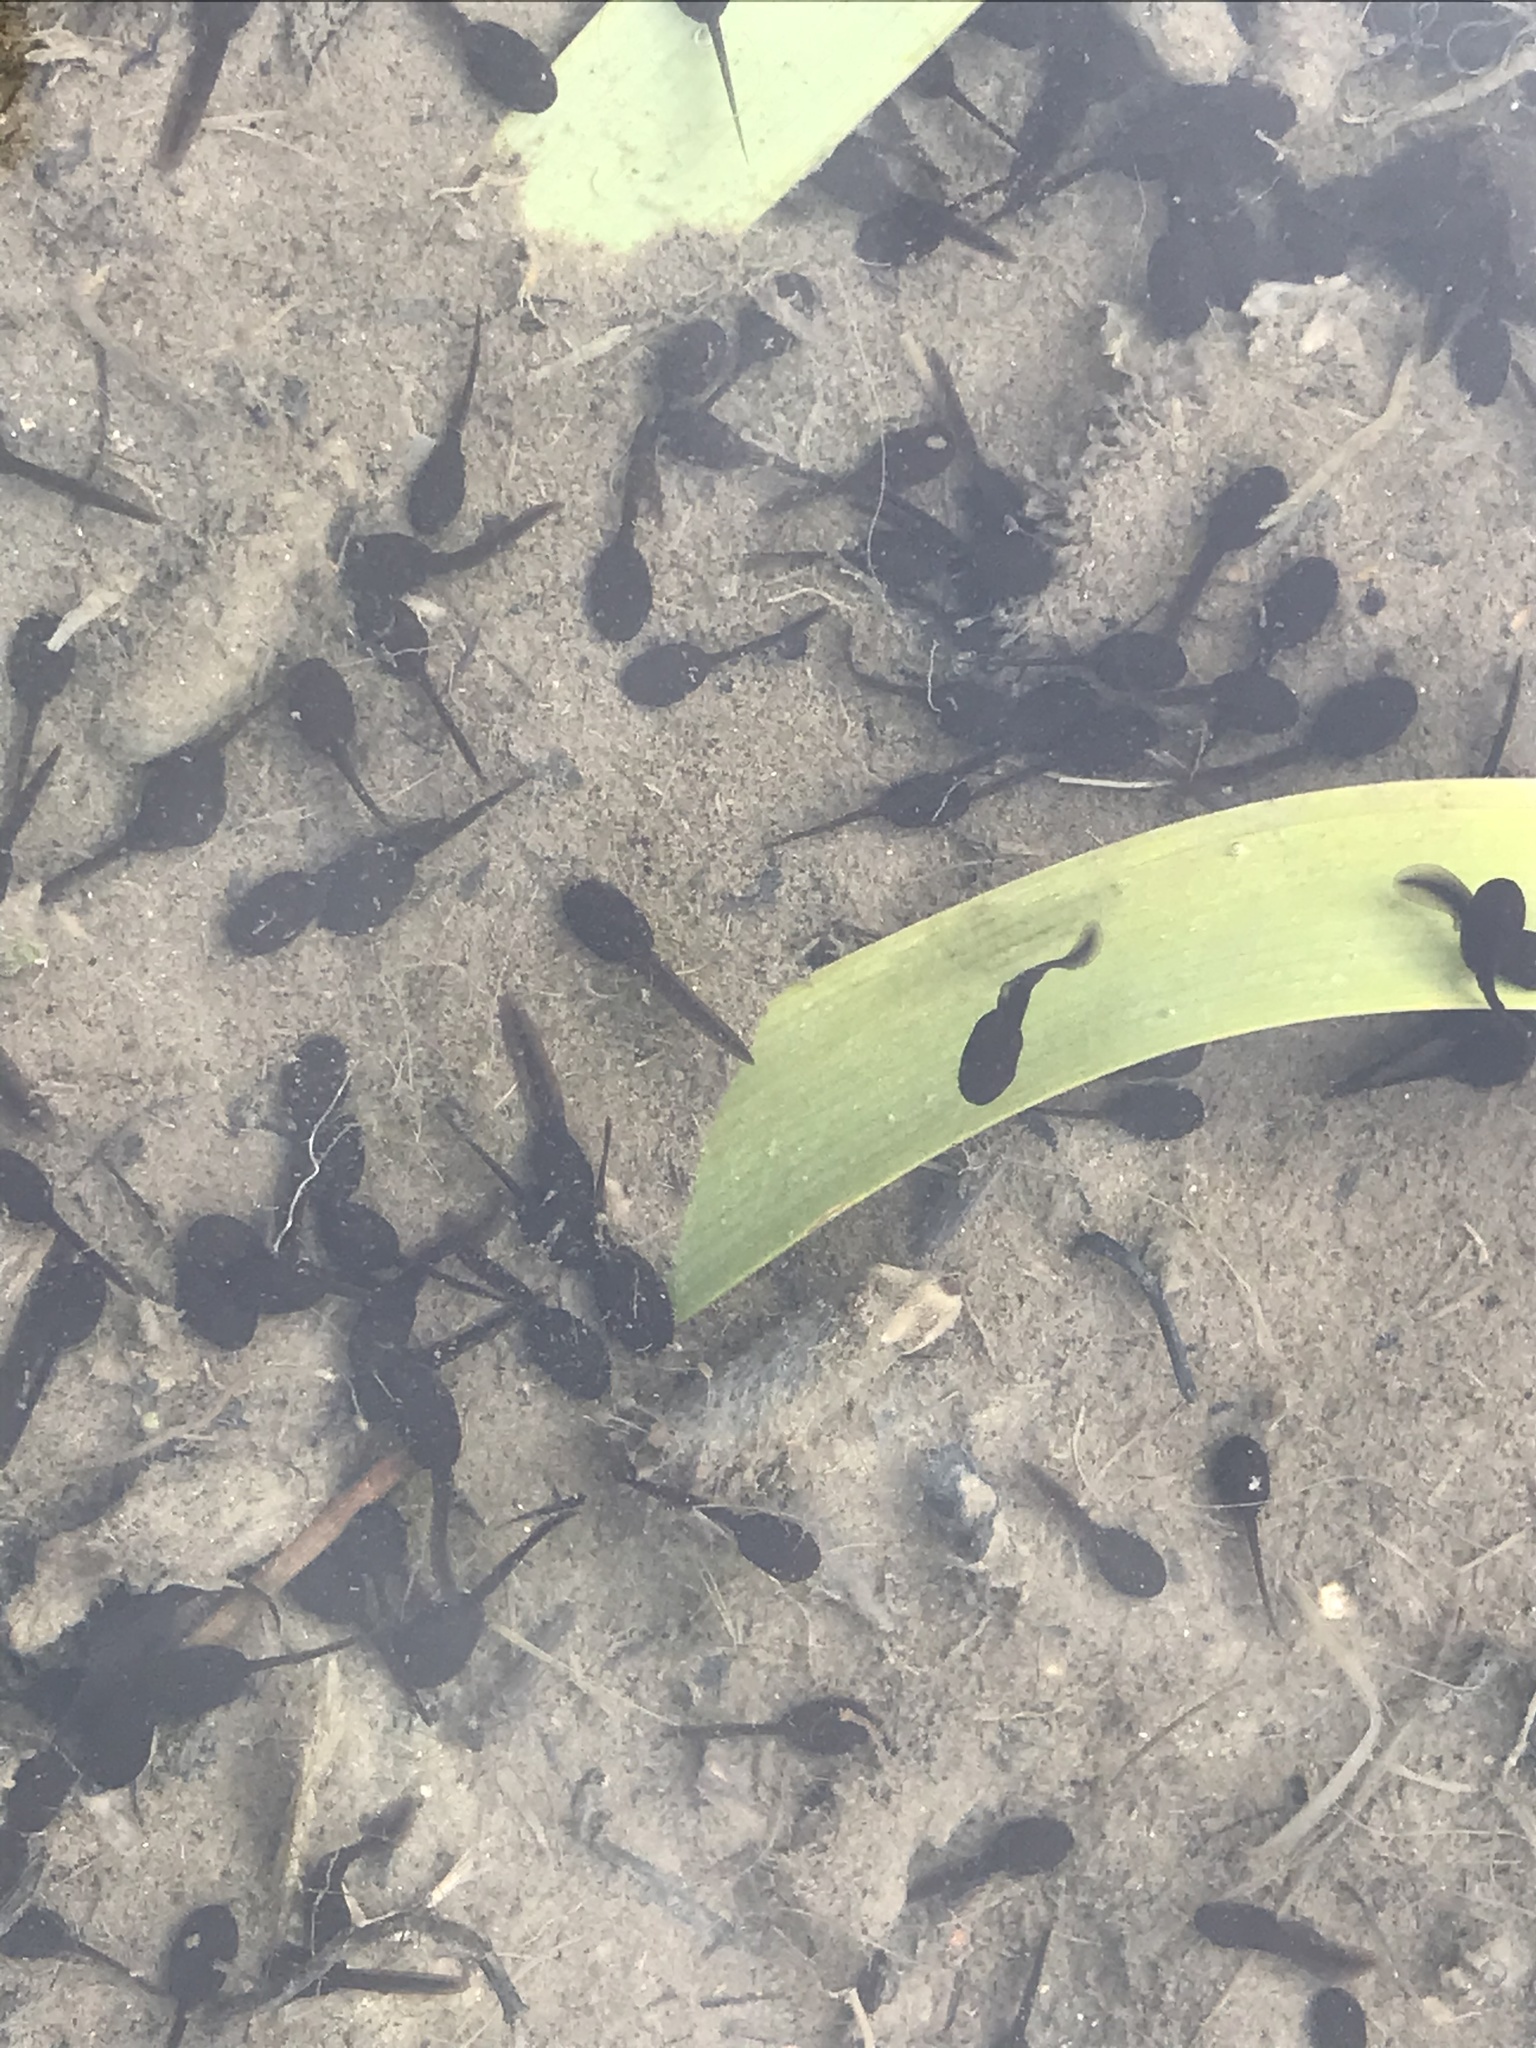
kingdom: Animalia
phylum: Chordata
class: Amphibia
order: Anura
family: Bufonidae
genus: Bufo
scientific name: Bufo bufo
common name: Common toad
